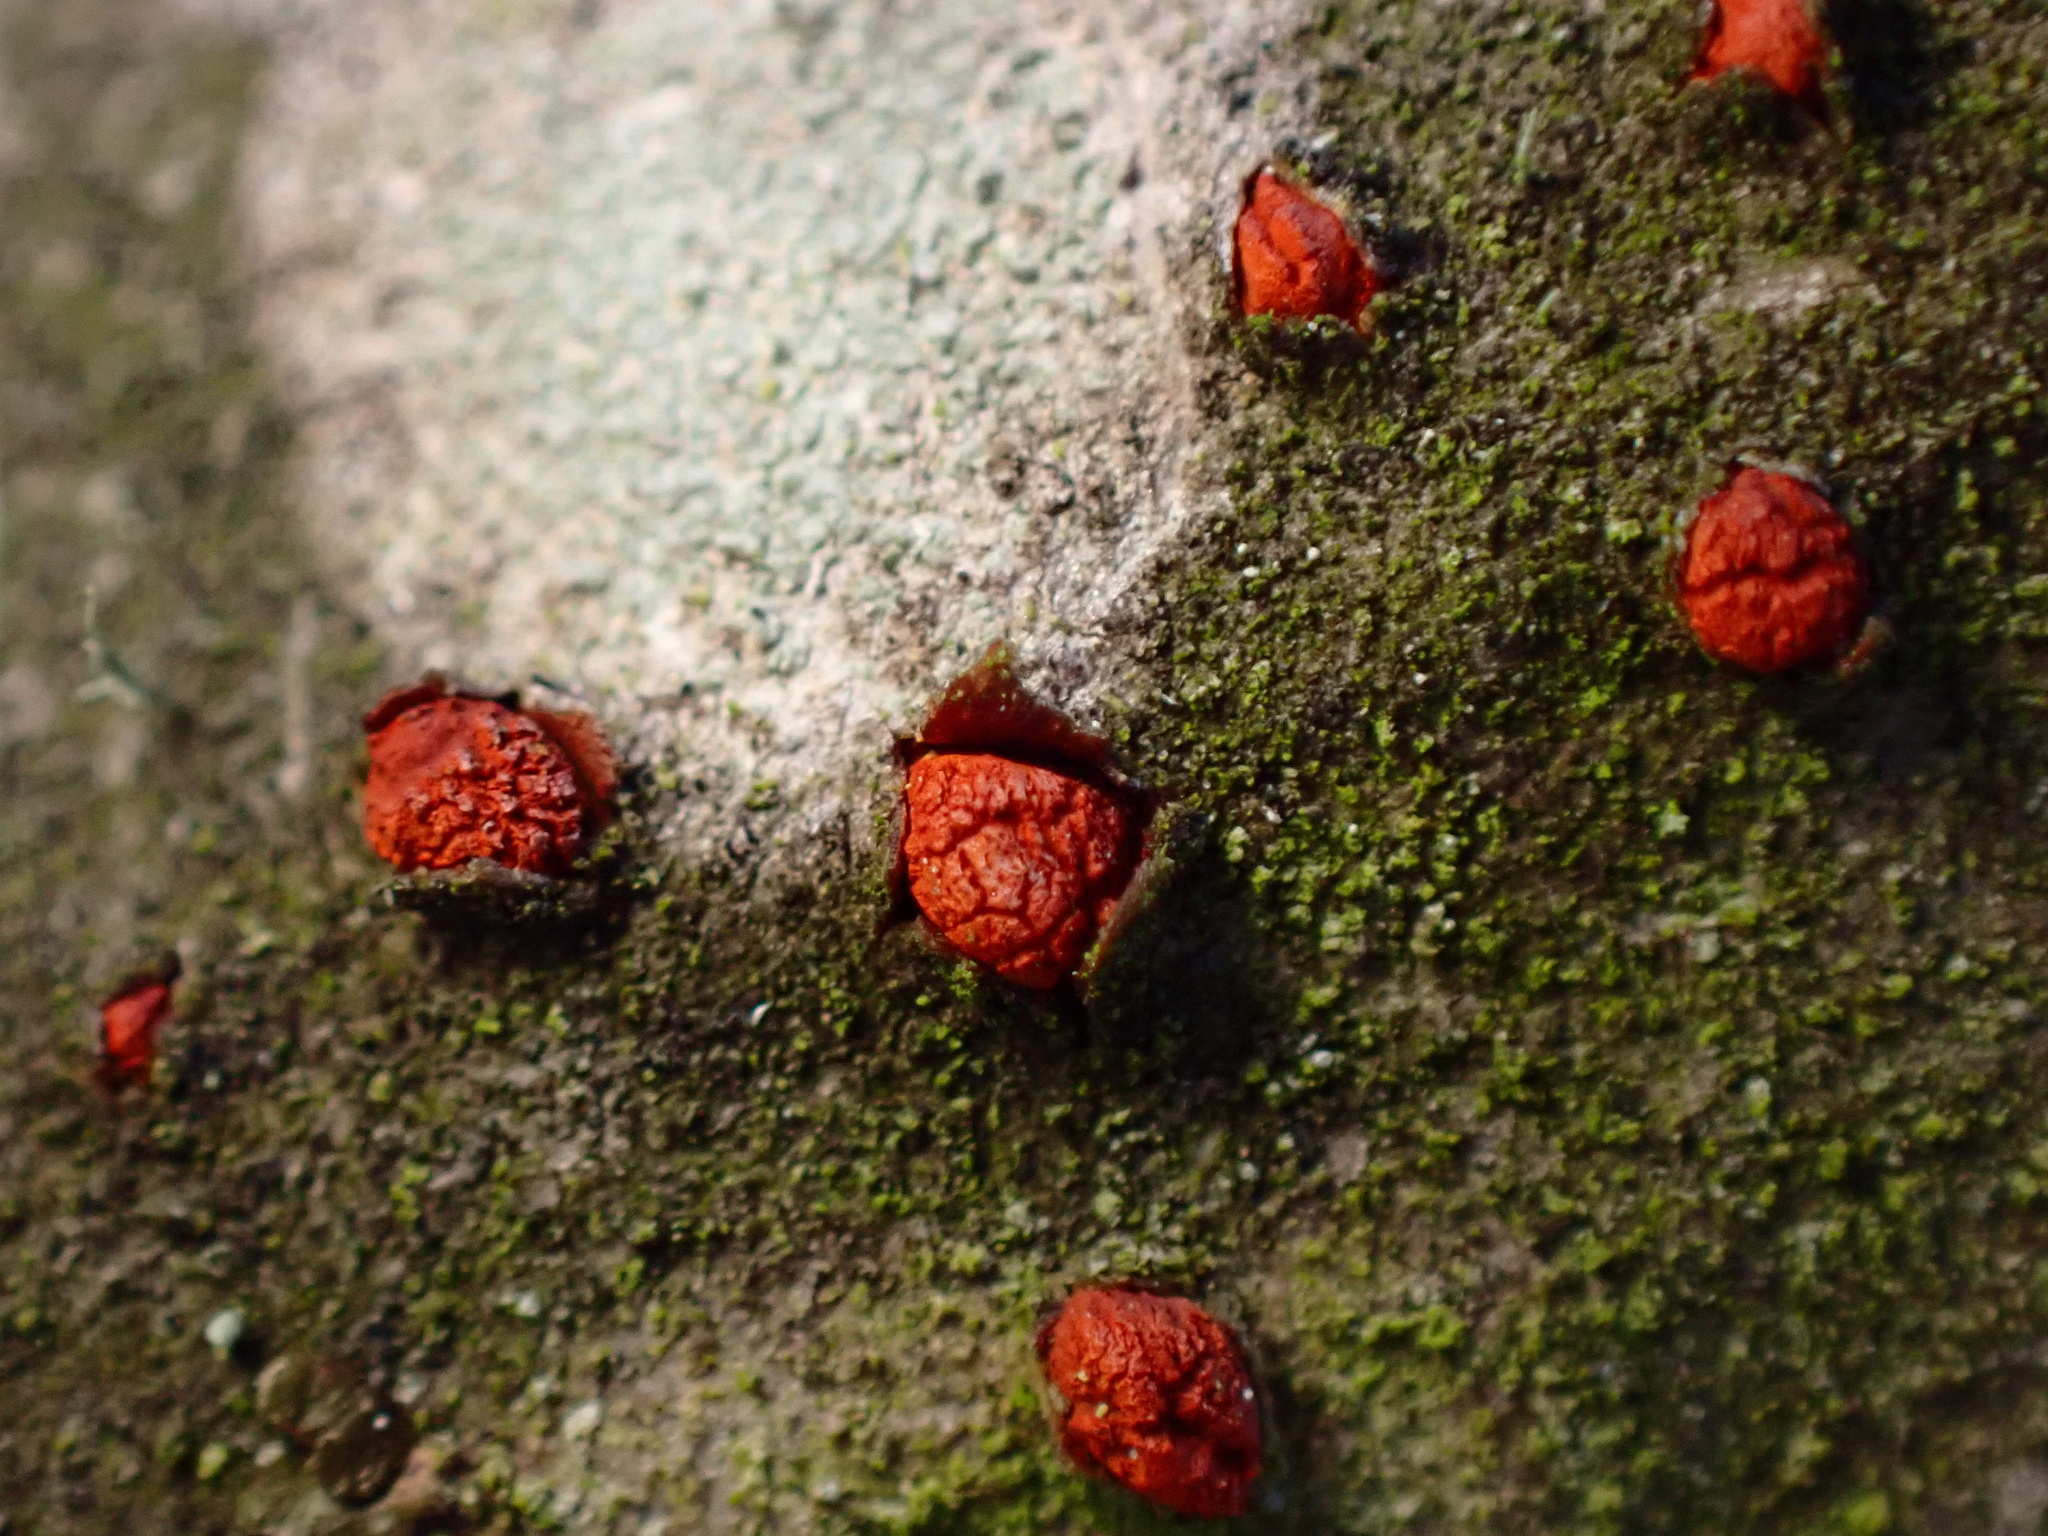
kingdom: Fungi
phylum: Ascomycota
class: Sordariomycetes
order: Diaporthales
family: Cryphonectriaceae
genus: Amphilogia
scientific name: Amphilogia gyrosa
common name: Orange hobnail canker
